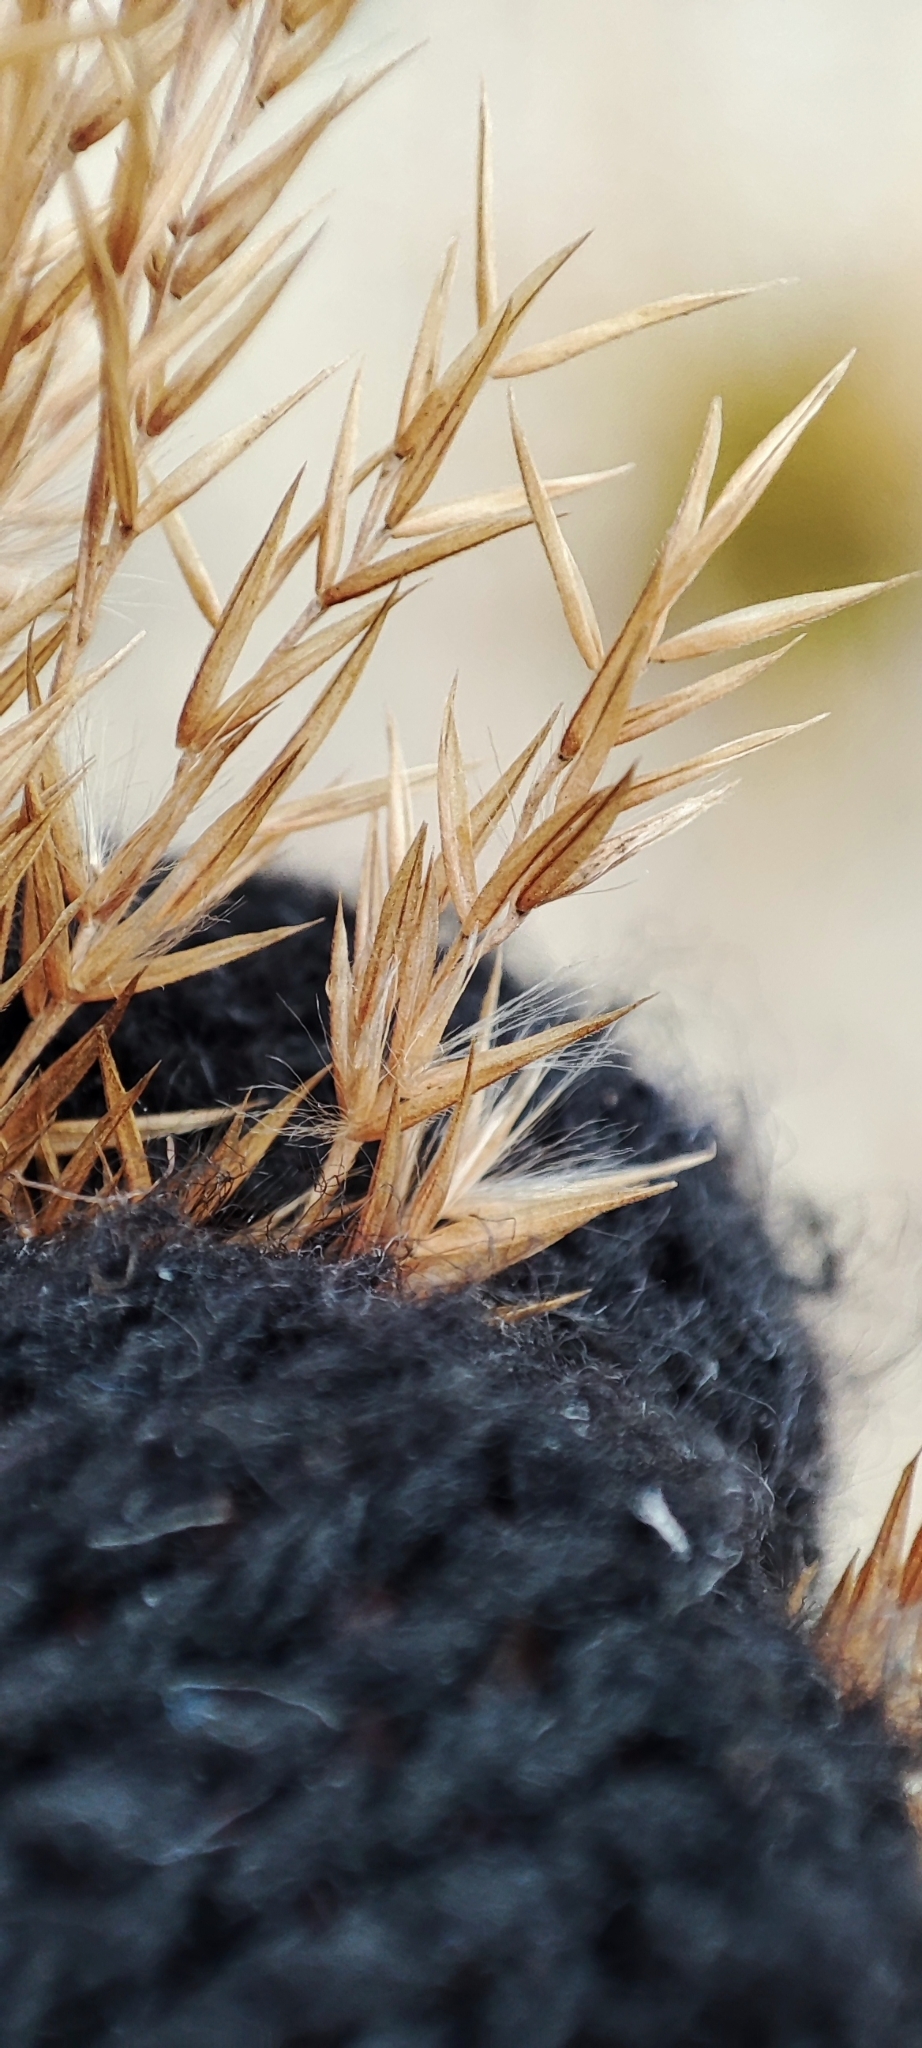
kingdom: Plantae
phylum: Tracheophyta
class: Liliopsida
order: Poales
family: Poaceae
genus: Calamagrostis
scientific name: Calamagrostis purpurea
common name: Scandinavian small-reed
